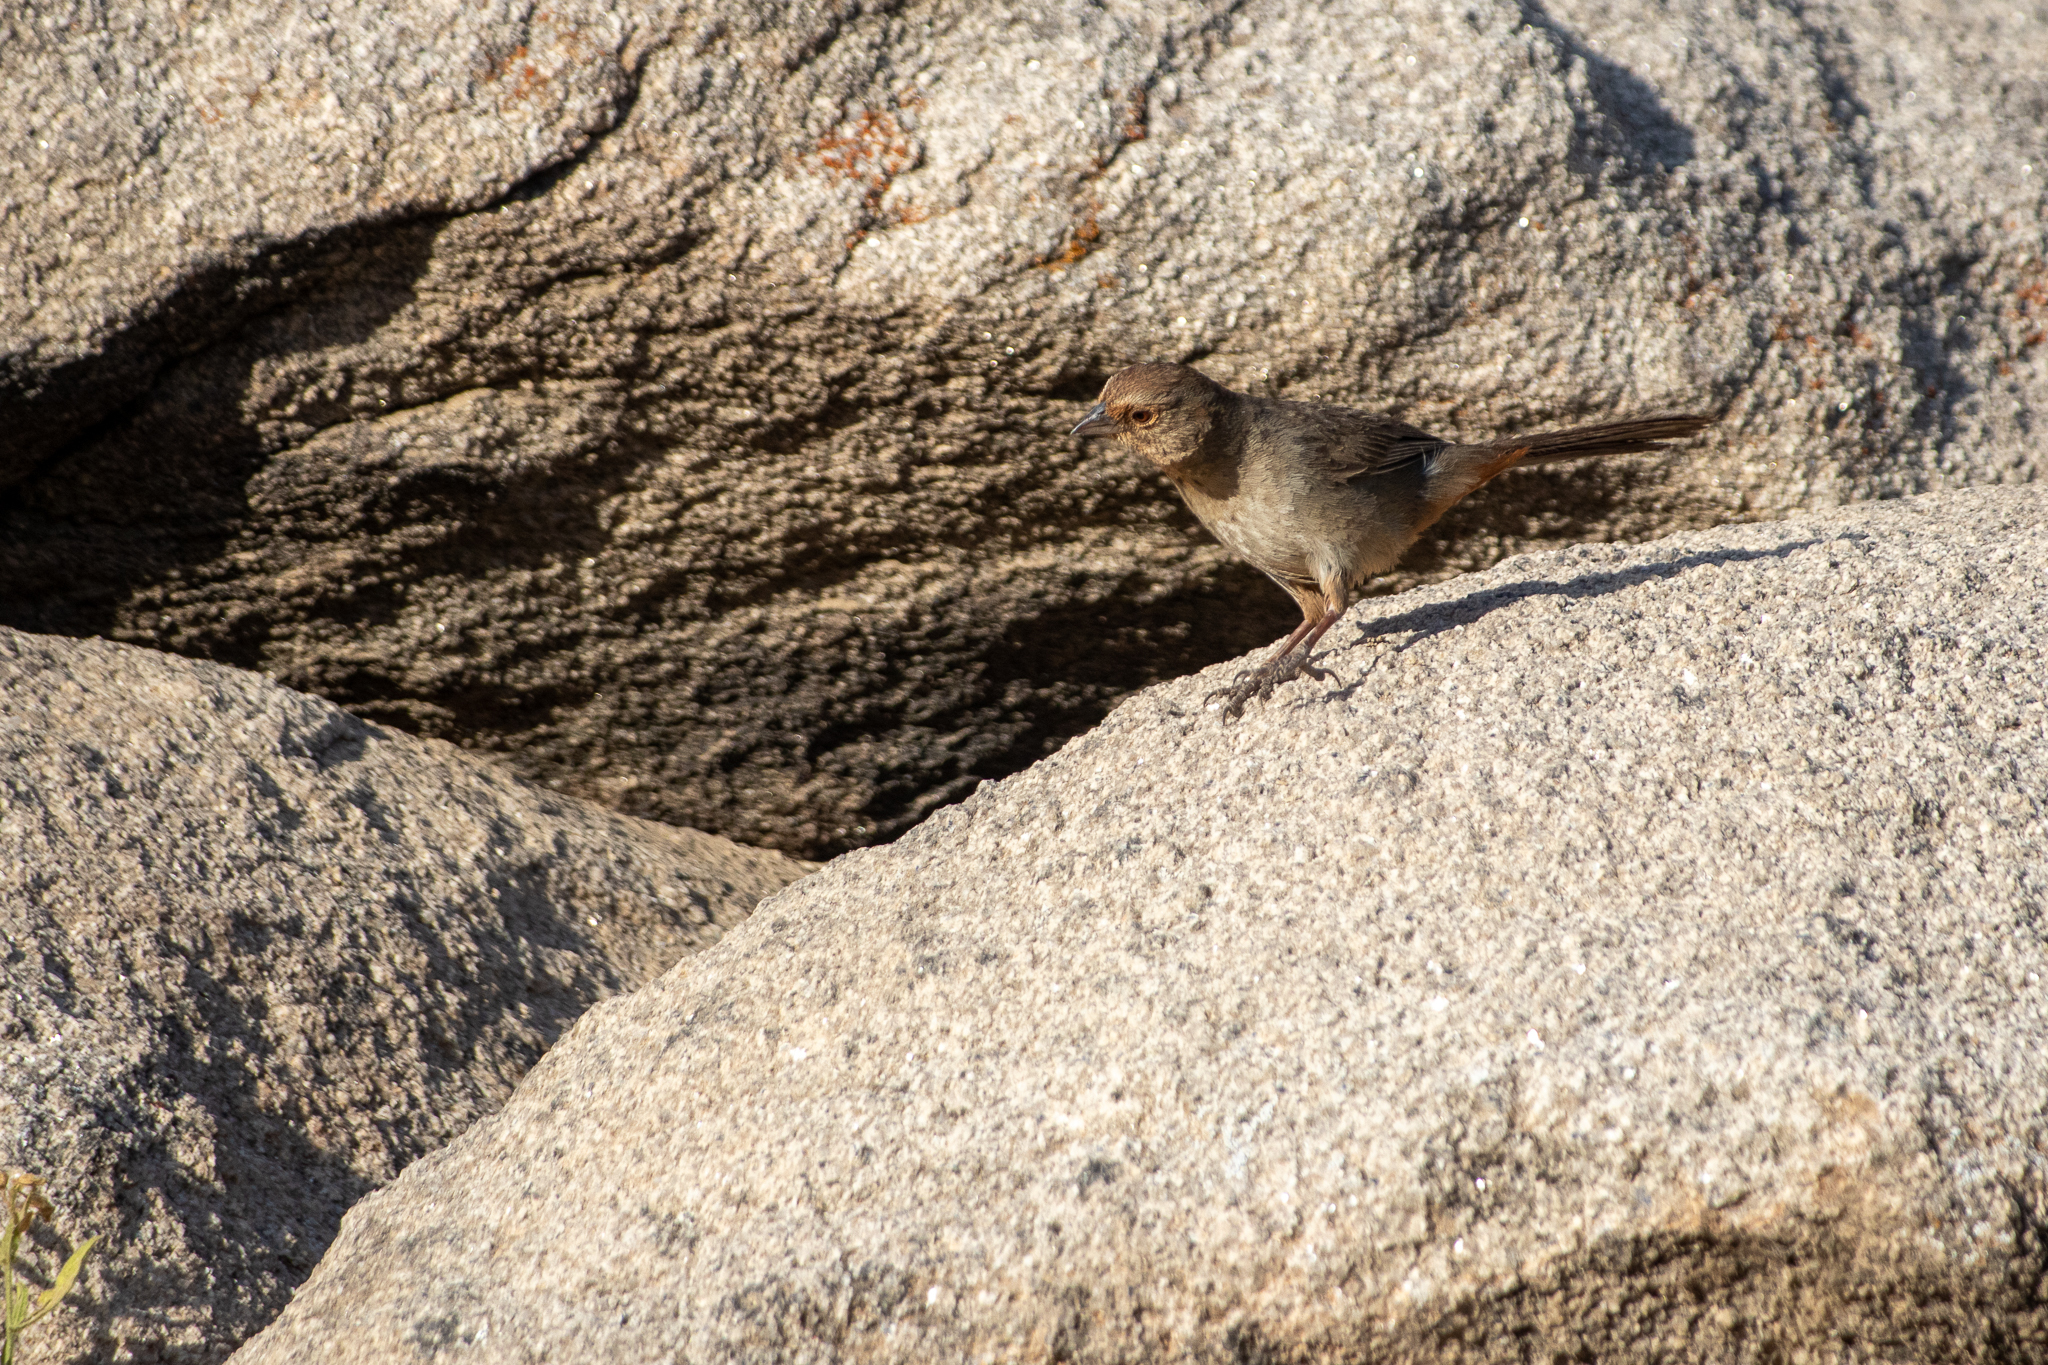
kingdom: Animalia
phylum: Chordata
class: Aves
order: Passeriformes
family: Passerellidae
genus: Melozone
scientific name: Melozone crissalis
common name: California towhee
